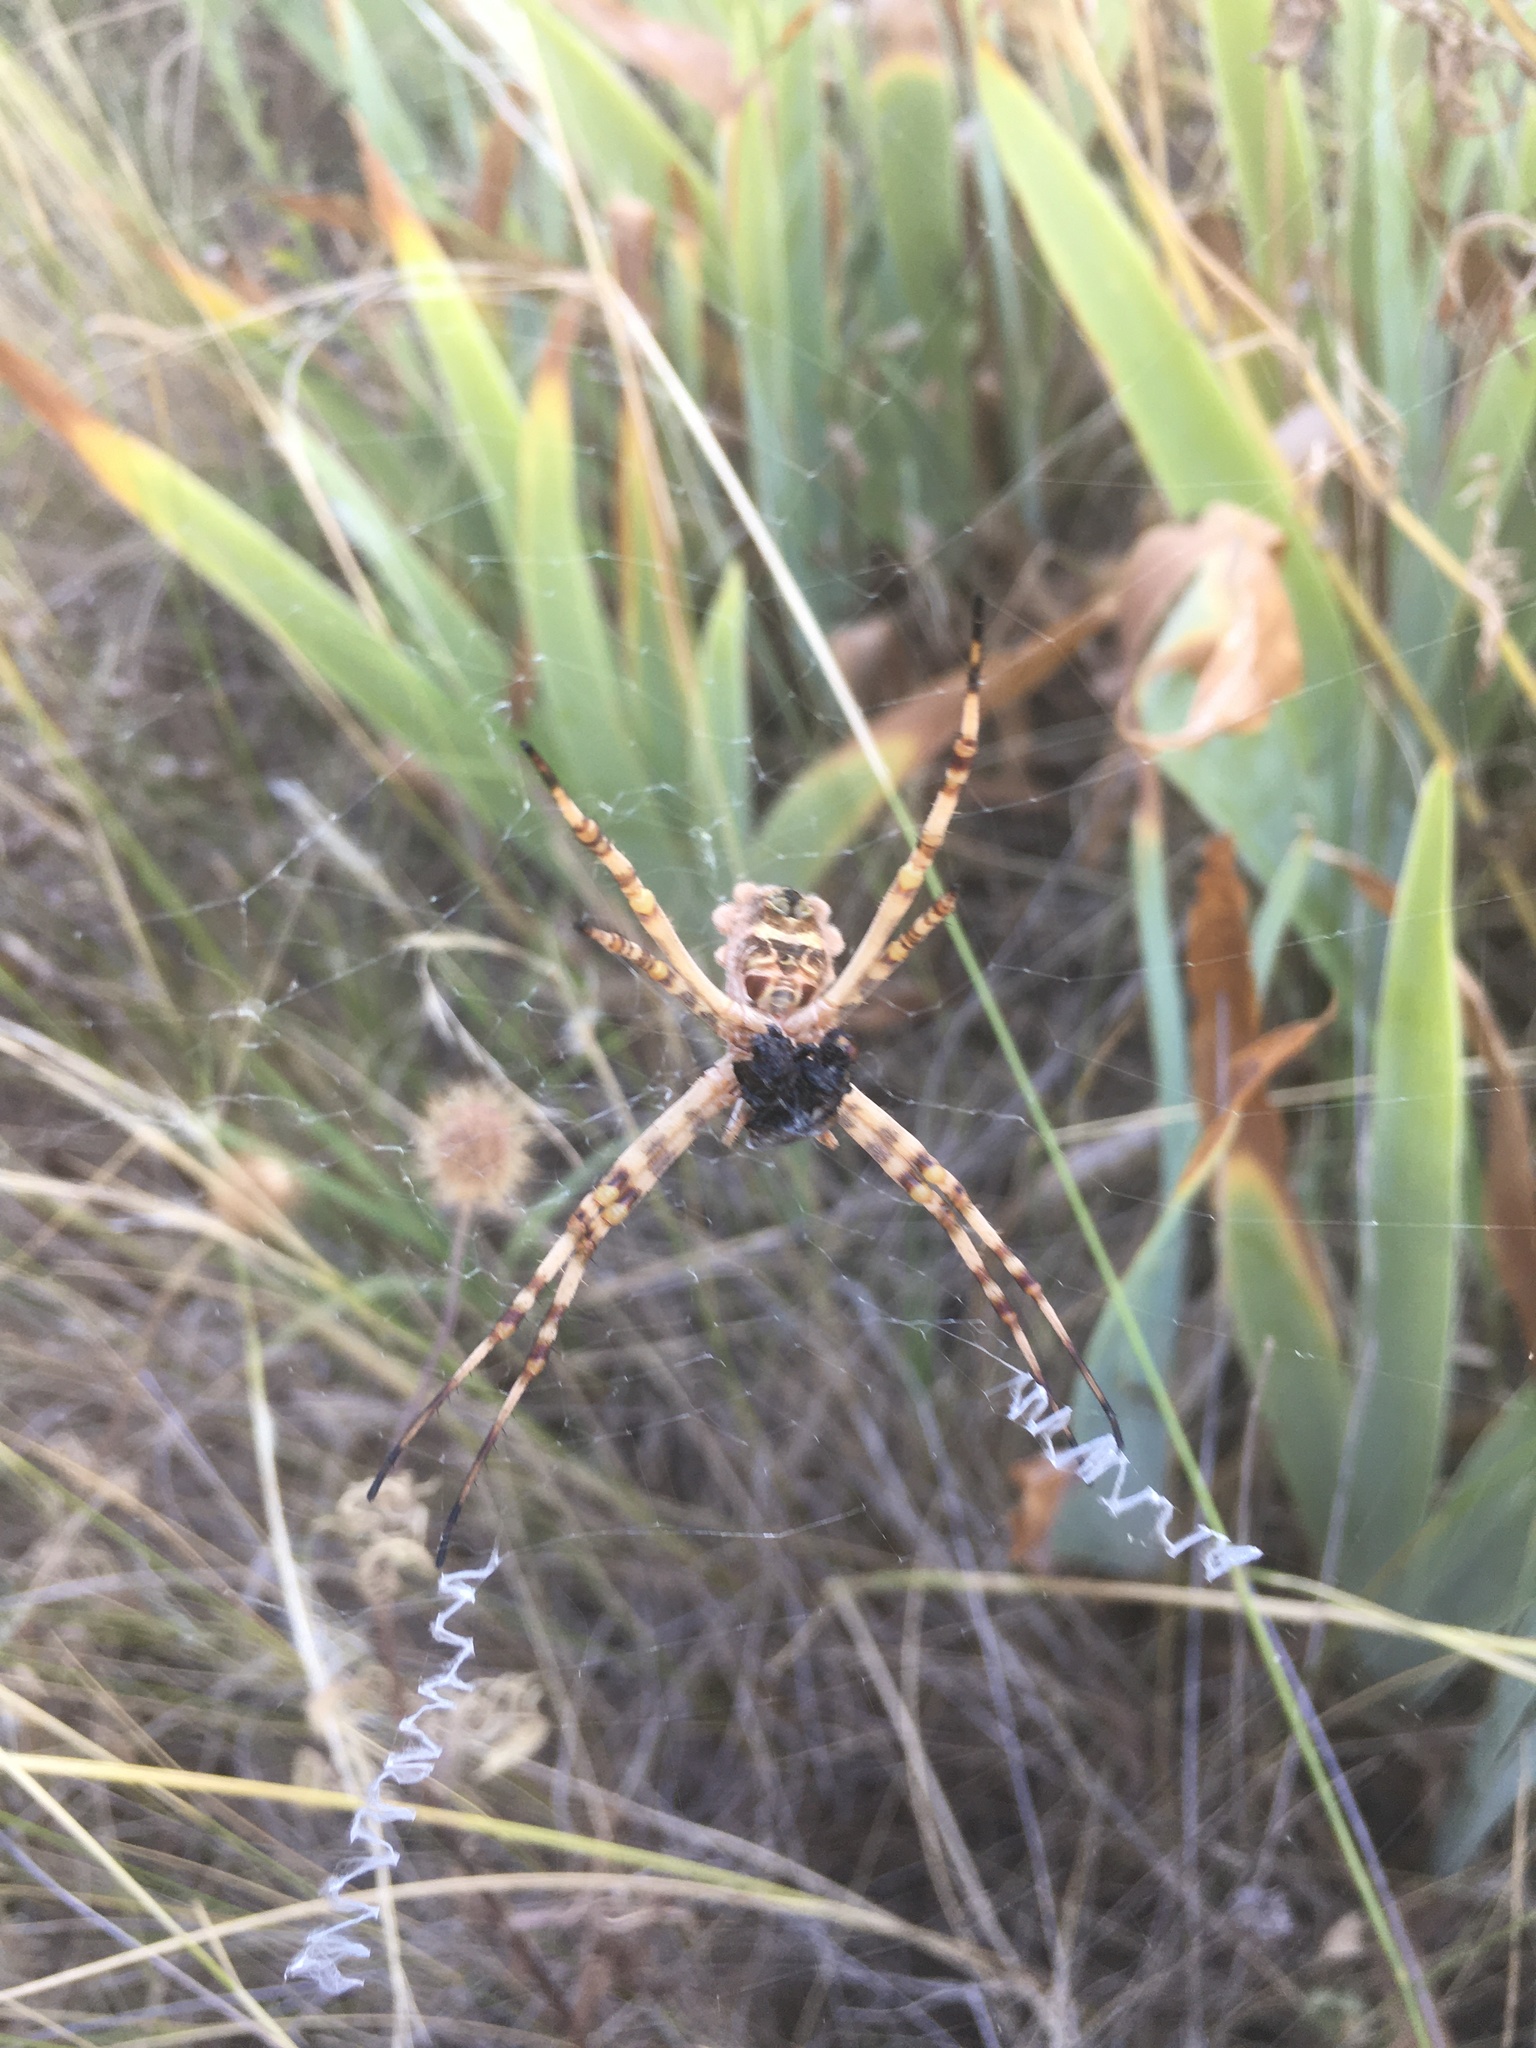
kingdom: Animalia
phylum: Arthropoda
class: Arachnida
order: Araneae
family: Araneidae
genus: Argiope
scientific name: Argiope argentata
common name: Orb weavers
